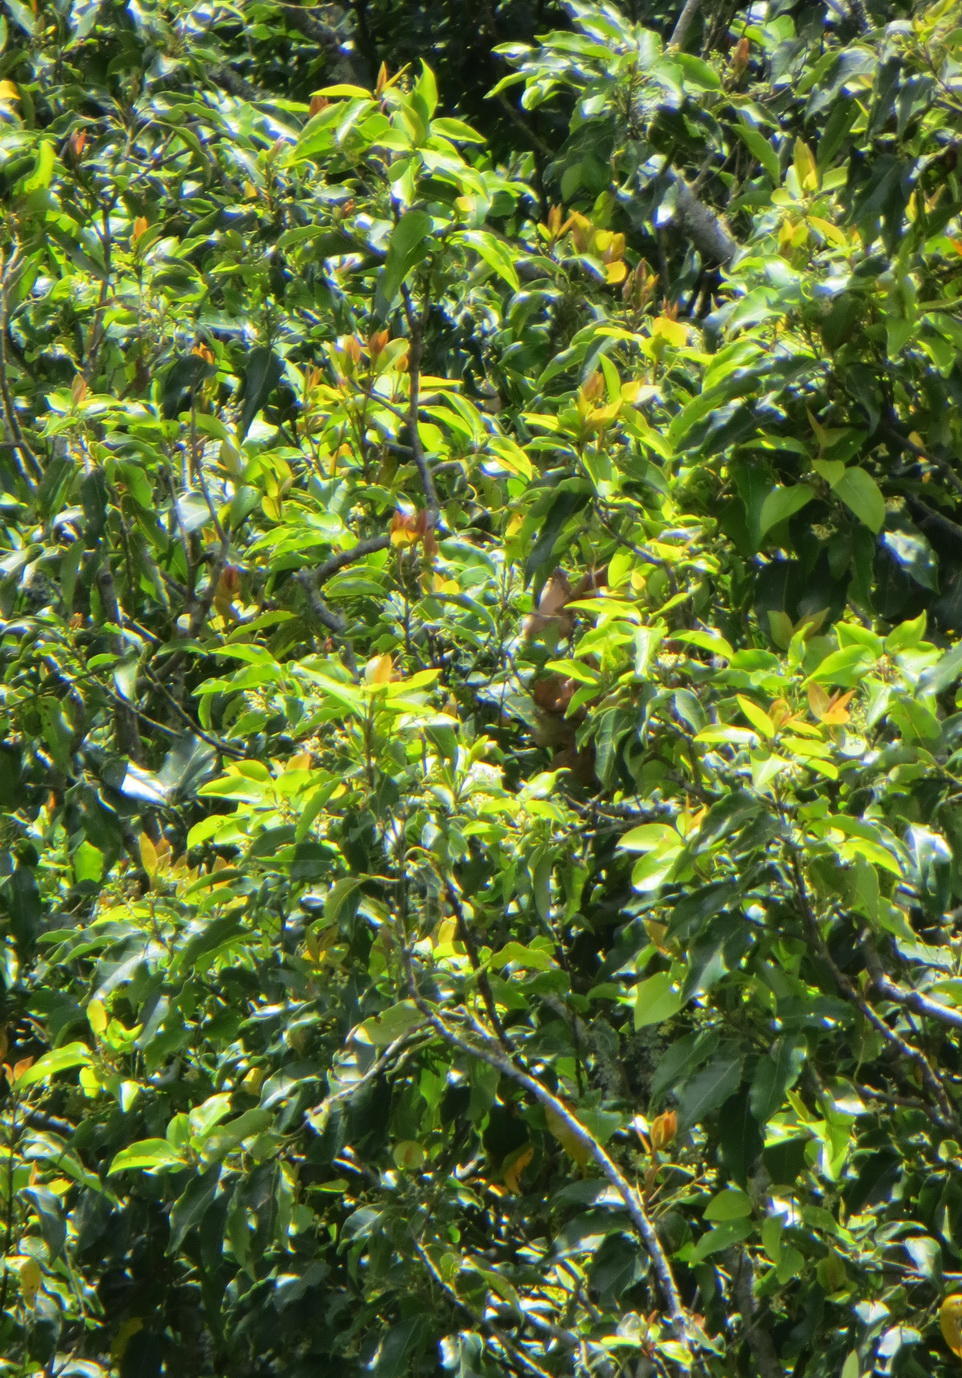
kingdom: Plantae
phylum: Tracheophyta
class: Magnoliopsida
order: Laurales
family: Lauraceae
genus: Ocotea
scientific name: Ocotea bullata
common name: Black stinkwood
